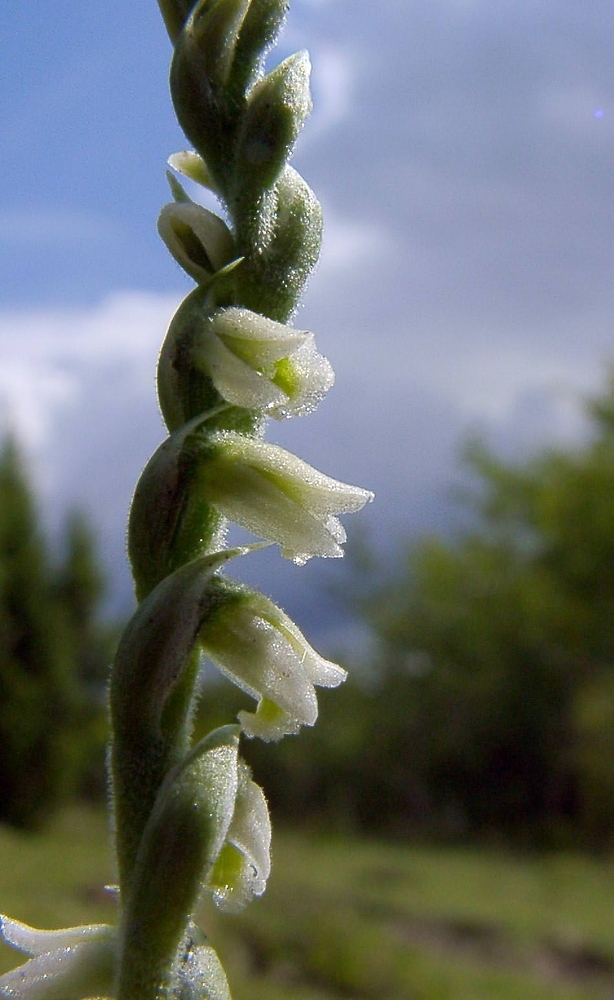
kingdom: Plantae
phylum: Tracheophyta
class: Liliopsida
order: Asparagales
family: Orchidaceae
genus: Spiranthes
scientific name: Spiranthes spiralis
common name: Autumn lady's-tresses
